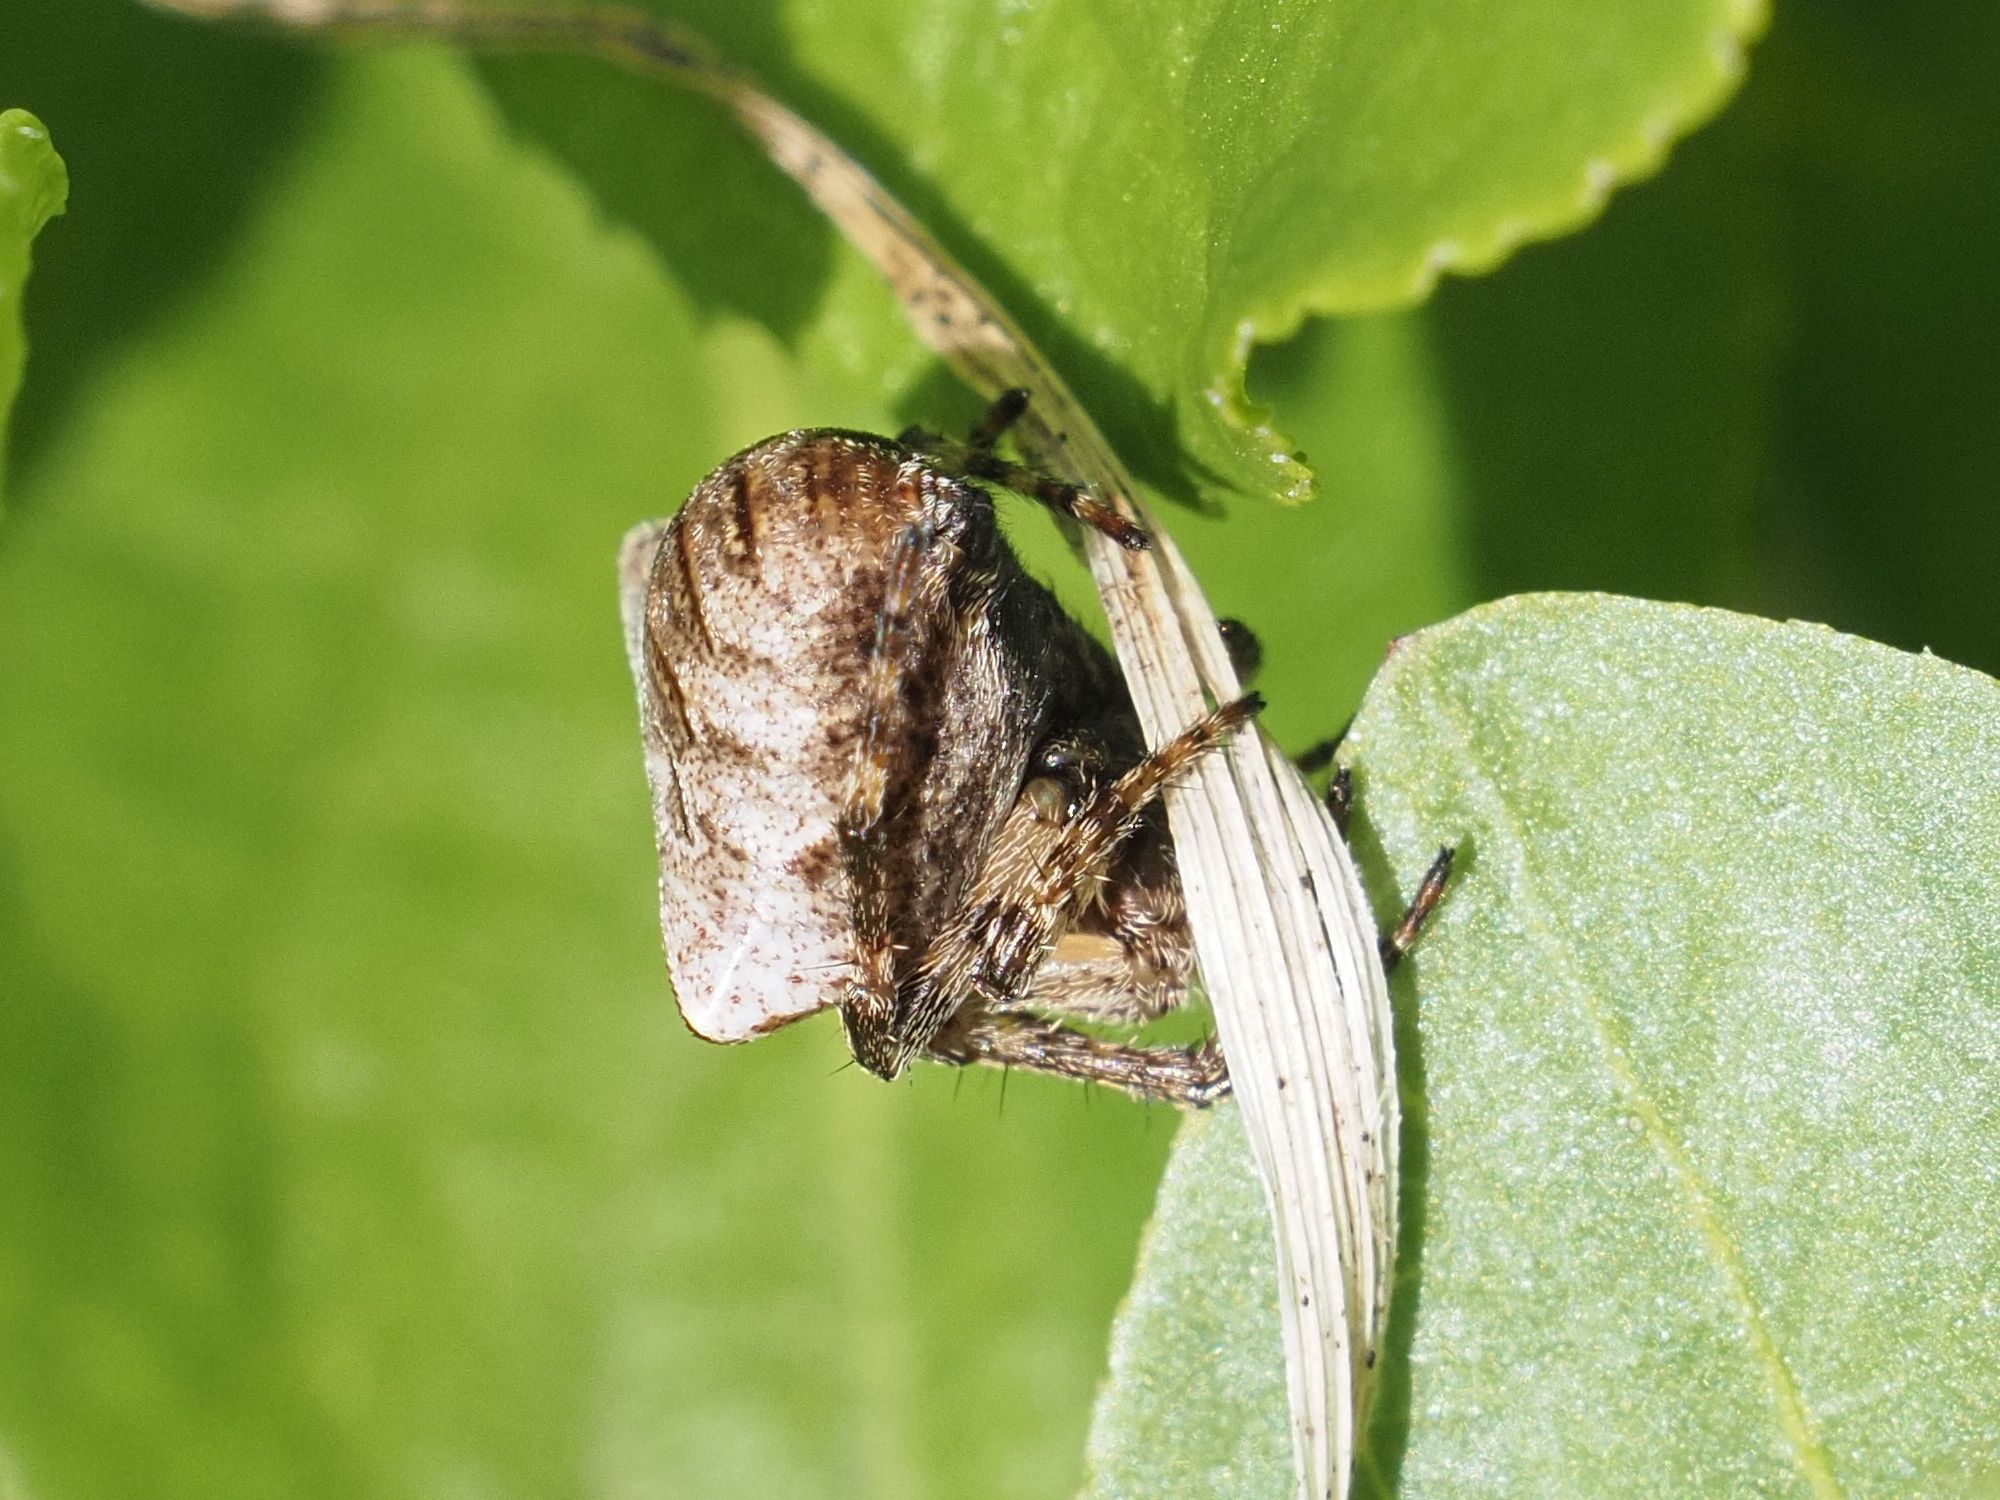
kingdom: Animalia
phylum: Arthropoda
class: Arachnida
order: Araneae
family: Araneidae
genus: Gibbaranea
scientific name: Gibbaranea bituberculata
